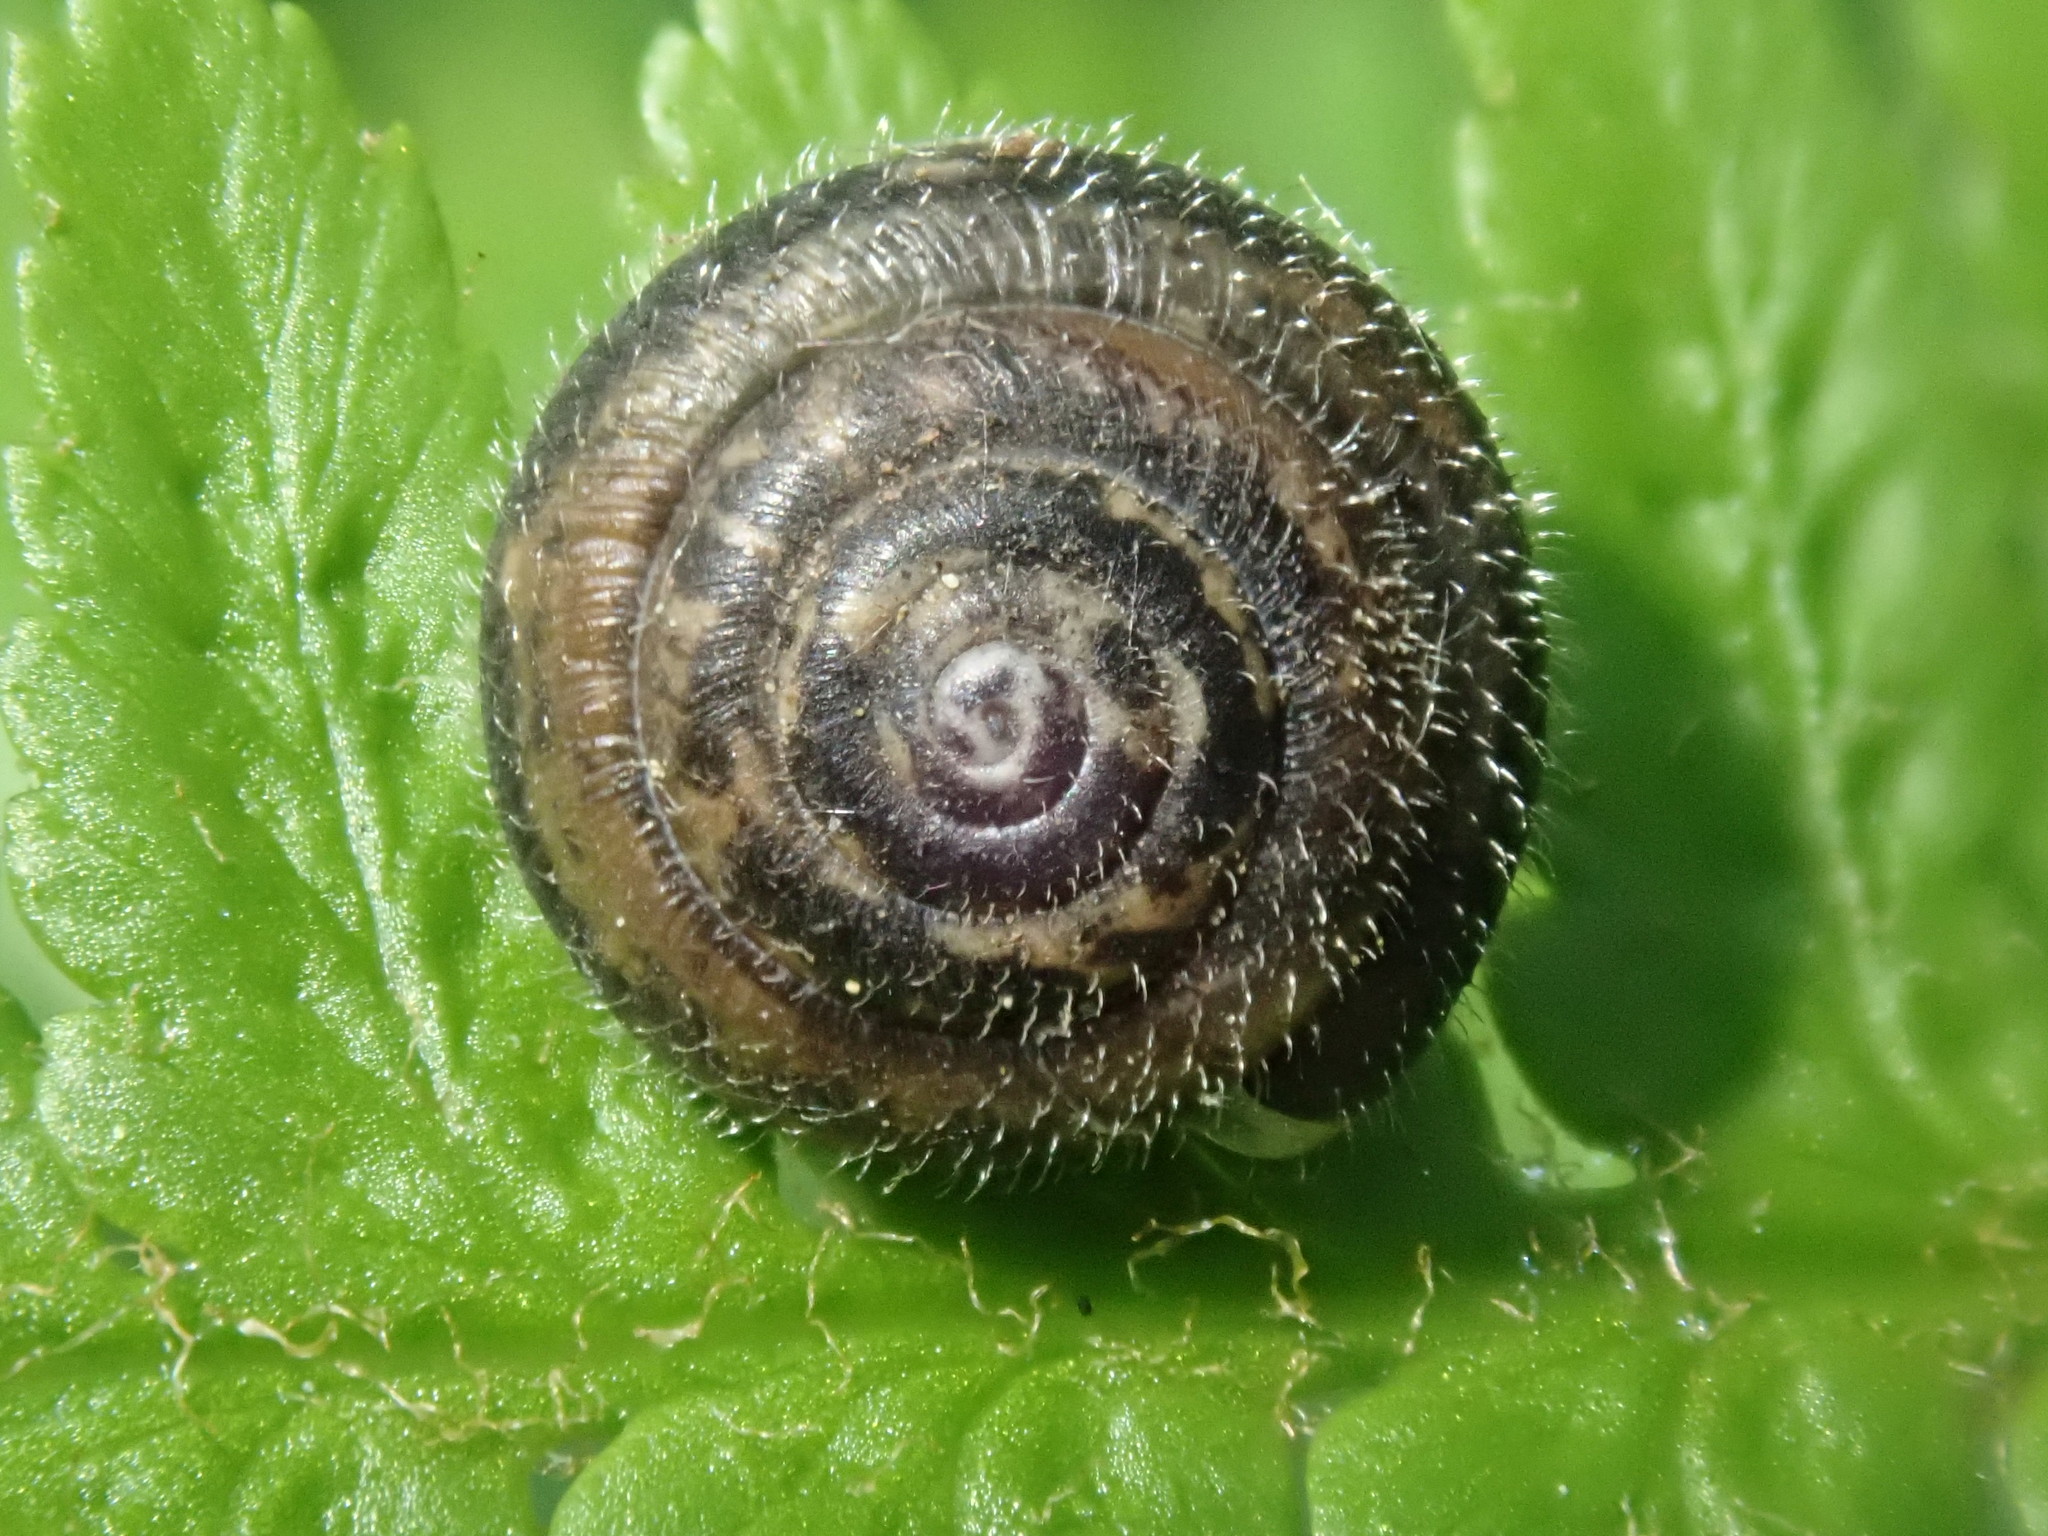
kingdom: Animalia
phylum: Mollusca
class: Gastropoda
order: Stylommatophora
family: Hygromiidae
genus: Trochulus
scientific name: Trochulus hispidus
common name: Hairy snail
